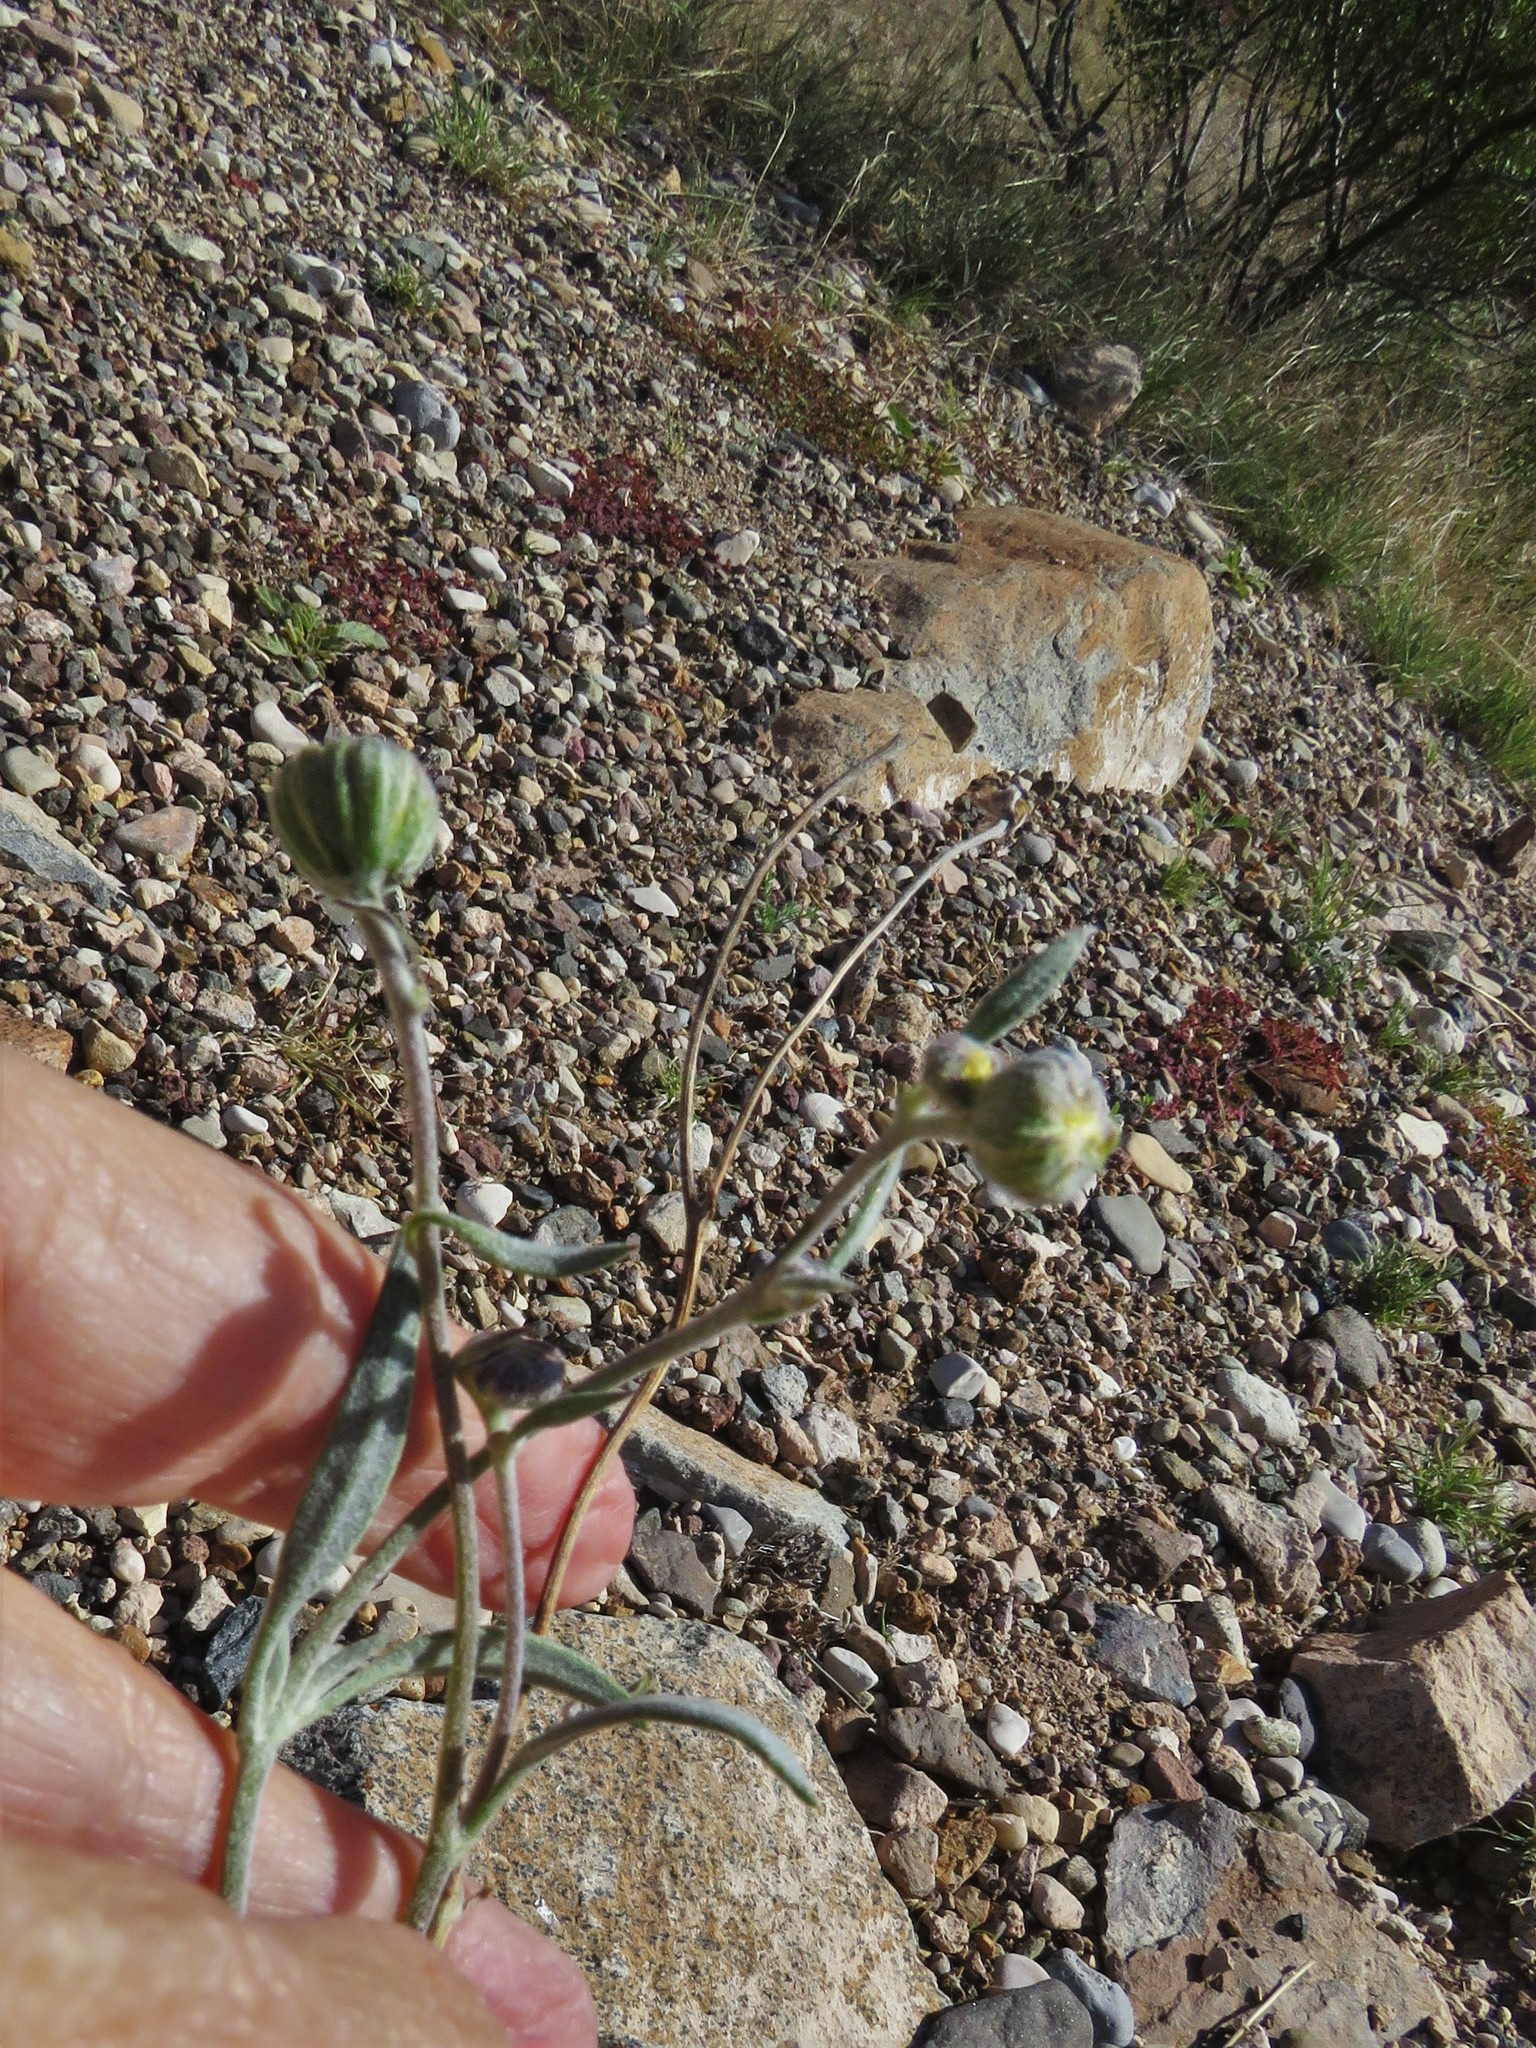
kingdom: Plantae
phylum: Tracheophyta
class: Magnoliopsida
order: Asterales
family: Asteraceae
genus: Picradeniopsis
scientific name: Picradeniopsis absinthifolia
